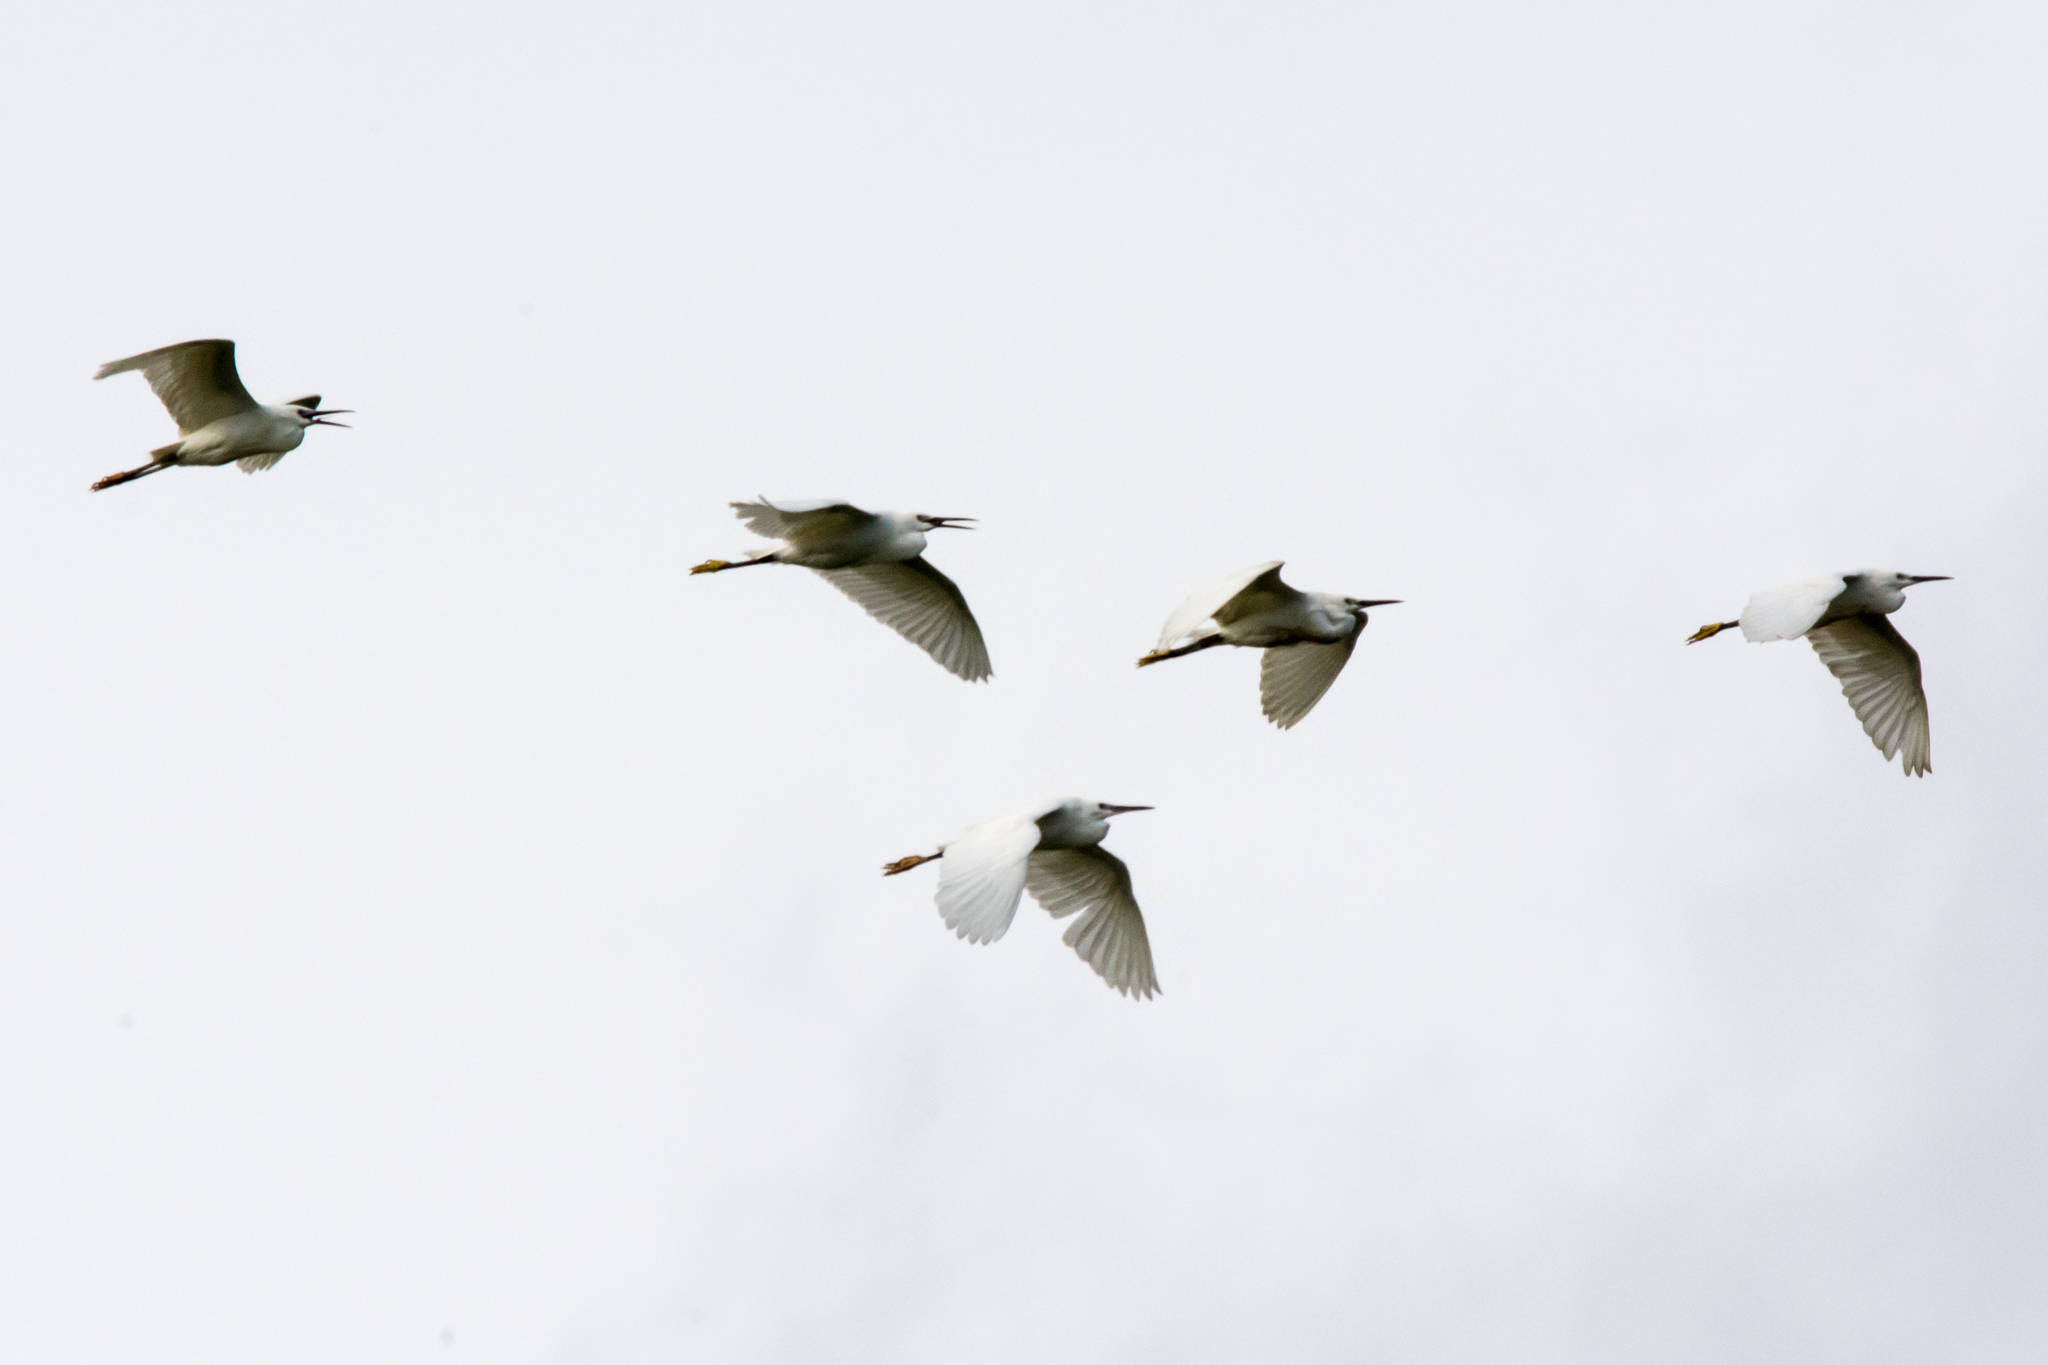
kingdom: Animalia
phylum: Chordata
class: Aves
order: Pelecaniformes
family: Ardeidae
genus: Egretta
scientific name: Egretta garzetta
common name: Little egret
